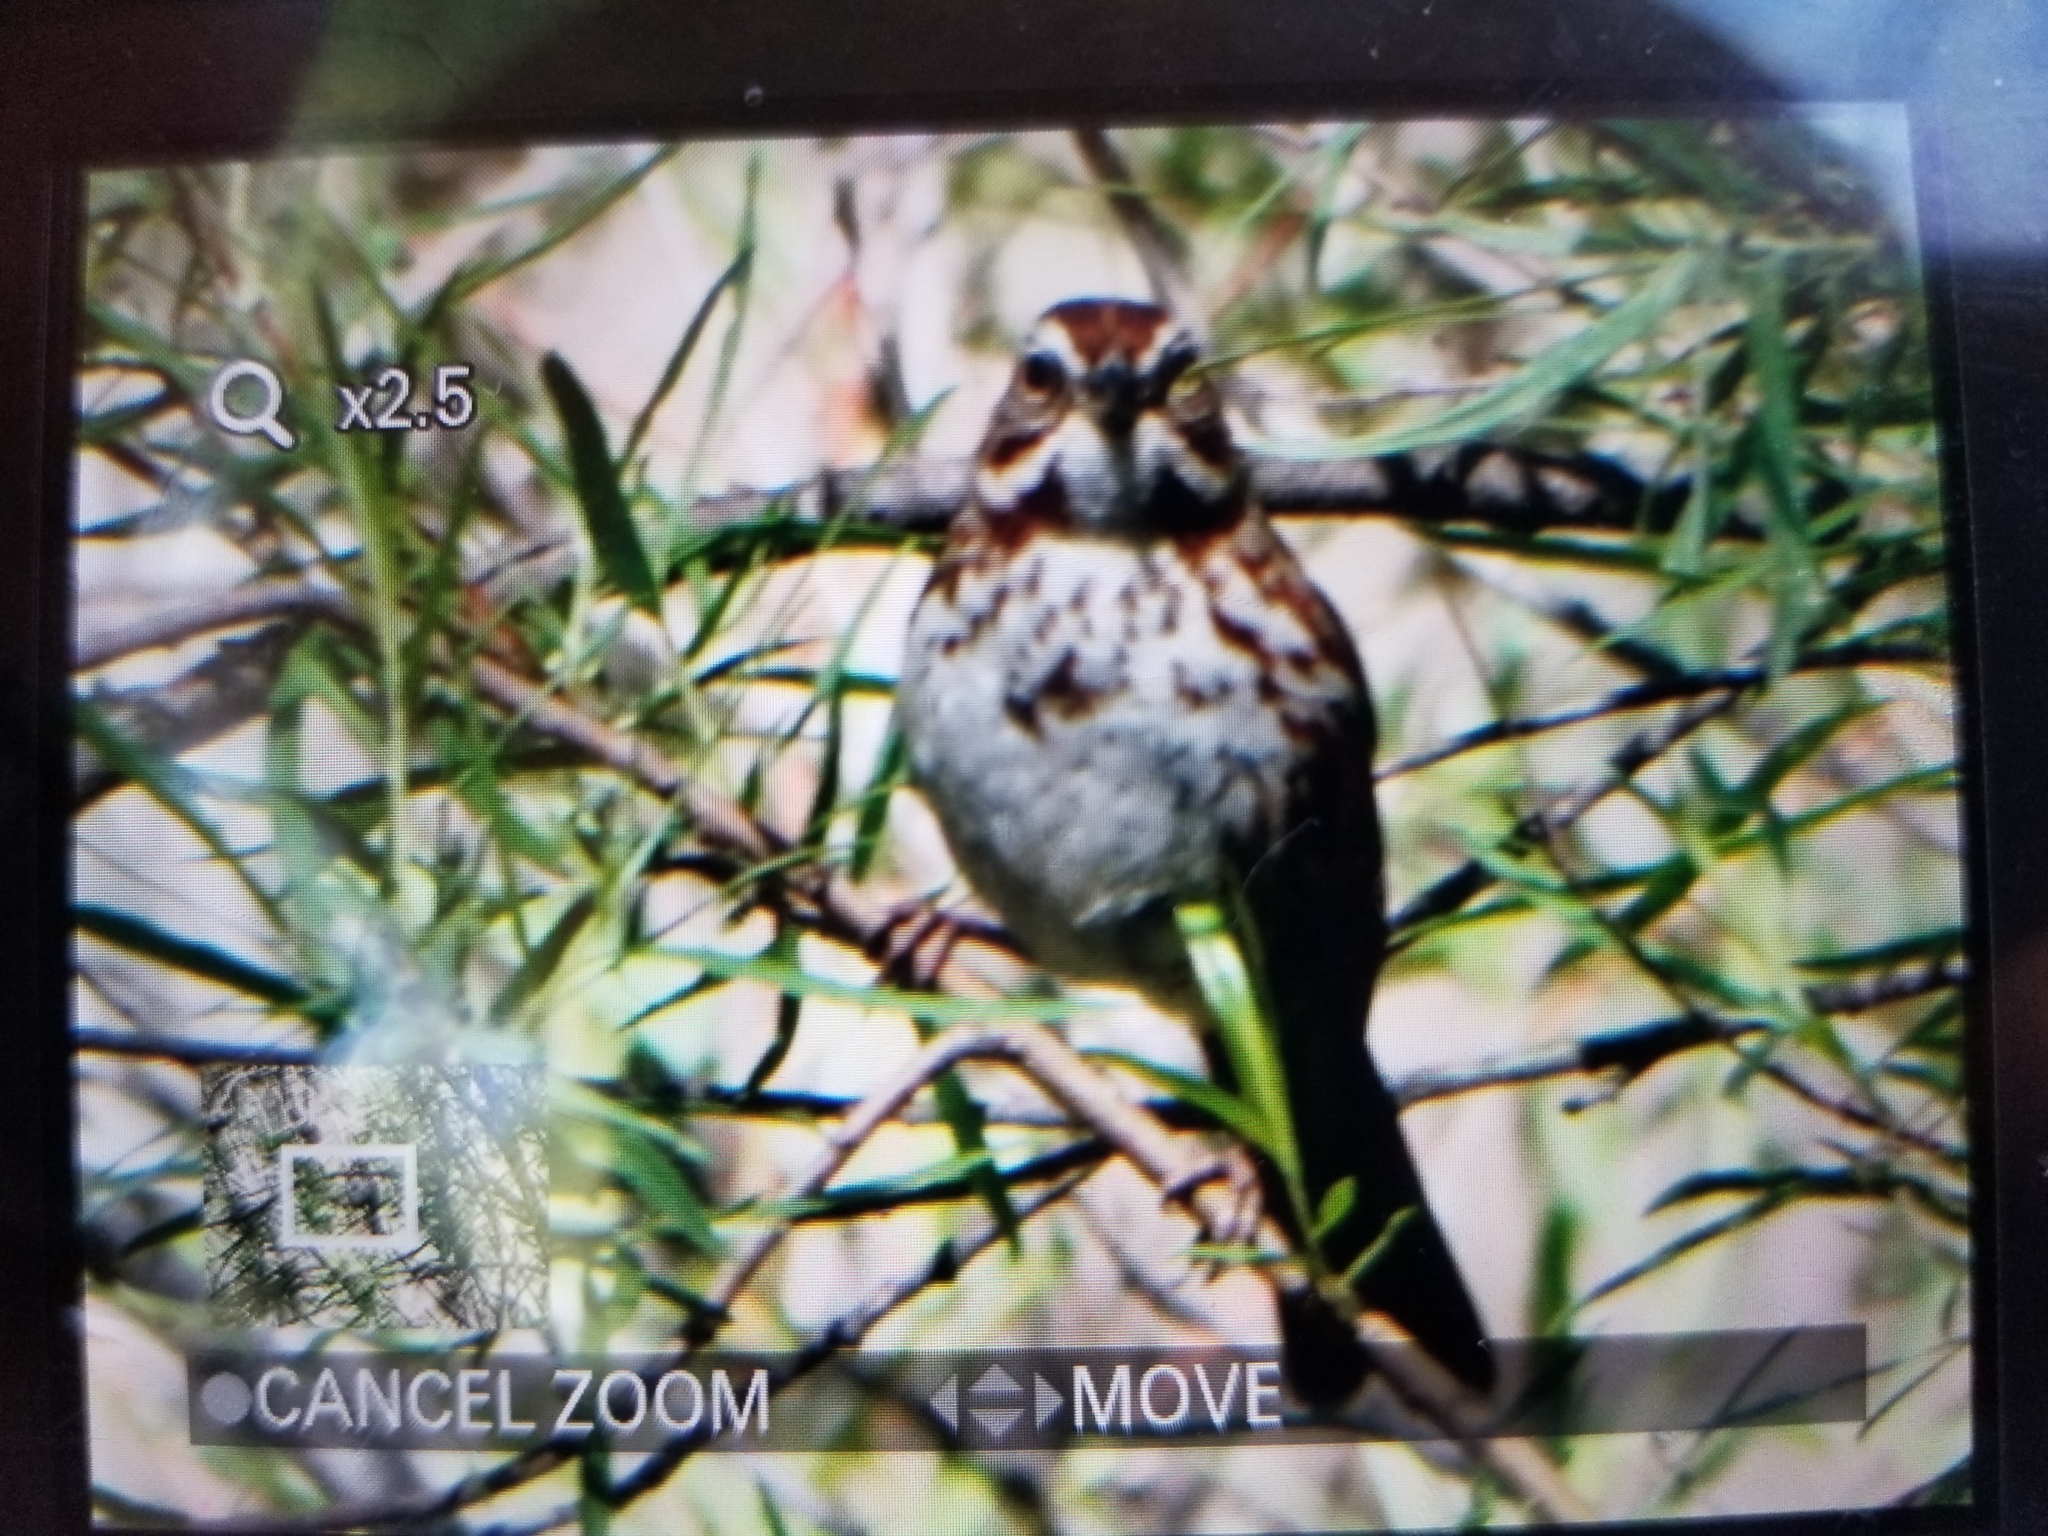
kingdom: Animalia
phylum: Chordata
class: Aves
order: Passeriformes
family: Passerellidae
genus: Melospiza
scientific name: Melospiza melodia
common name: Song sparrow
